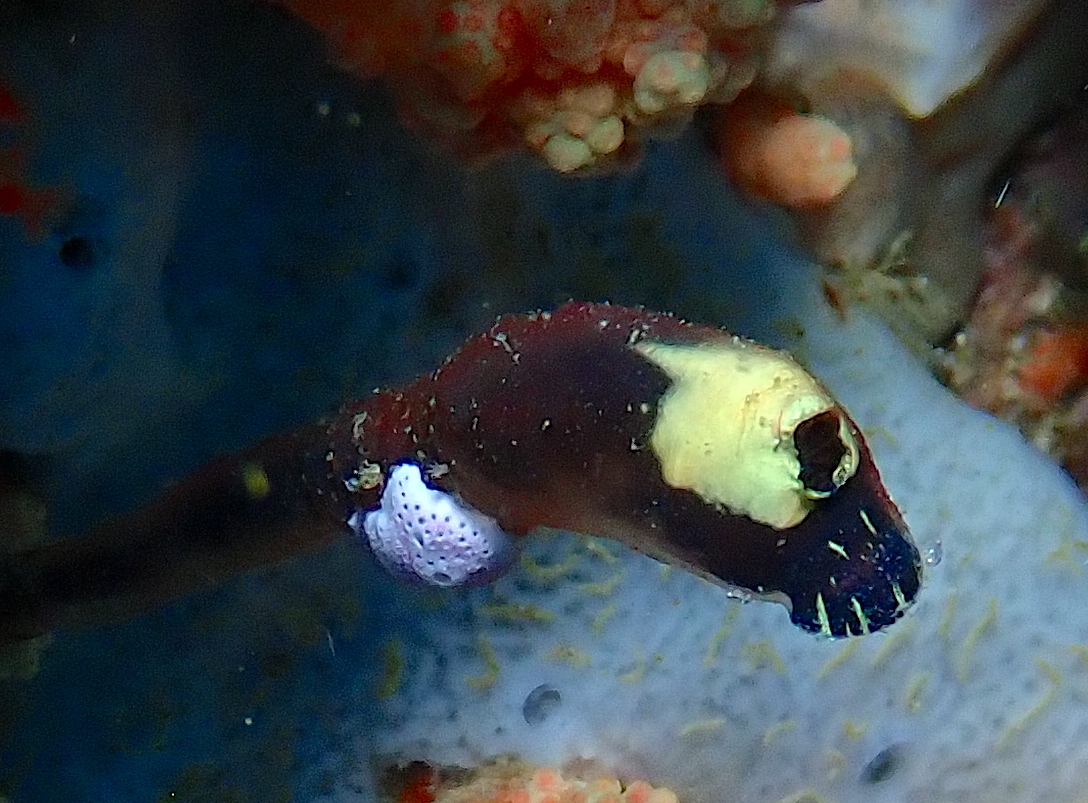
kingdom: Animalia
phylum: Chordata
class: Ascidiacea
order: Aplousobranchia
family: Clavelinidae
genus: Clavelina
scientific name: Clavelina viola
